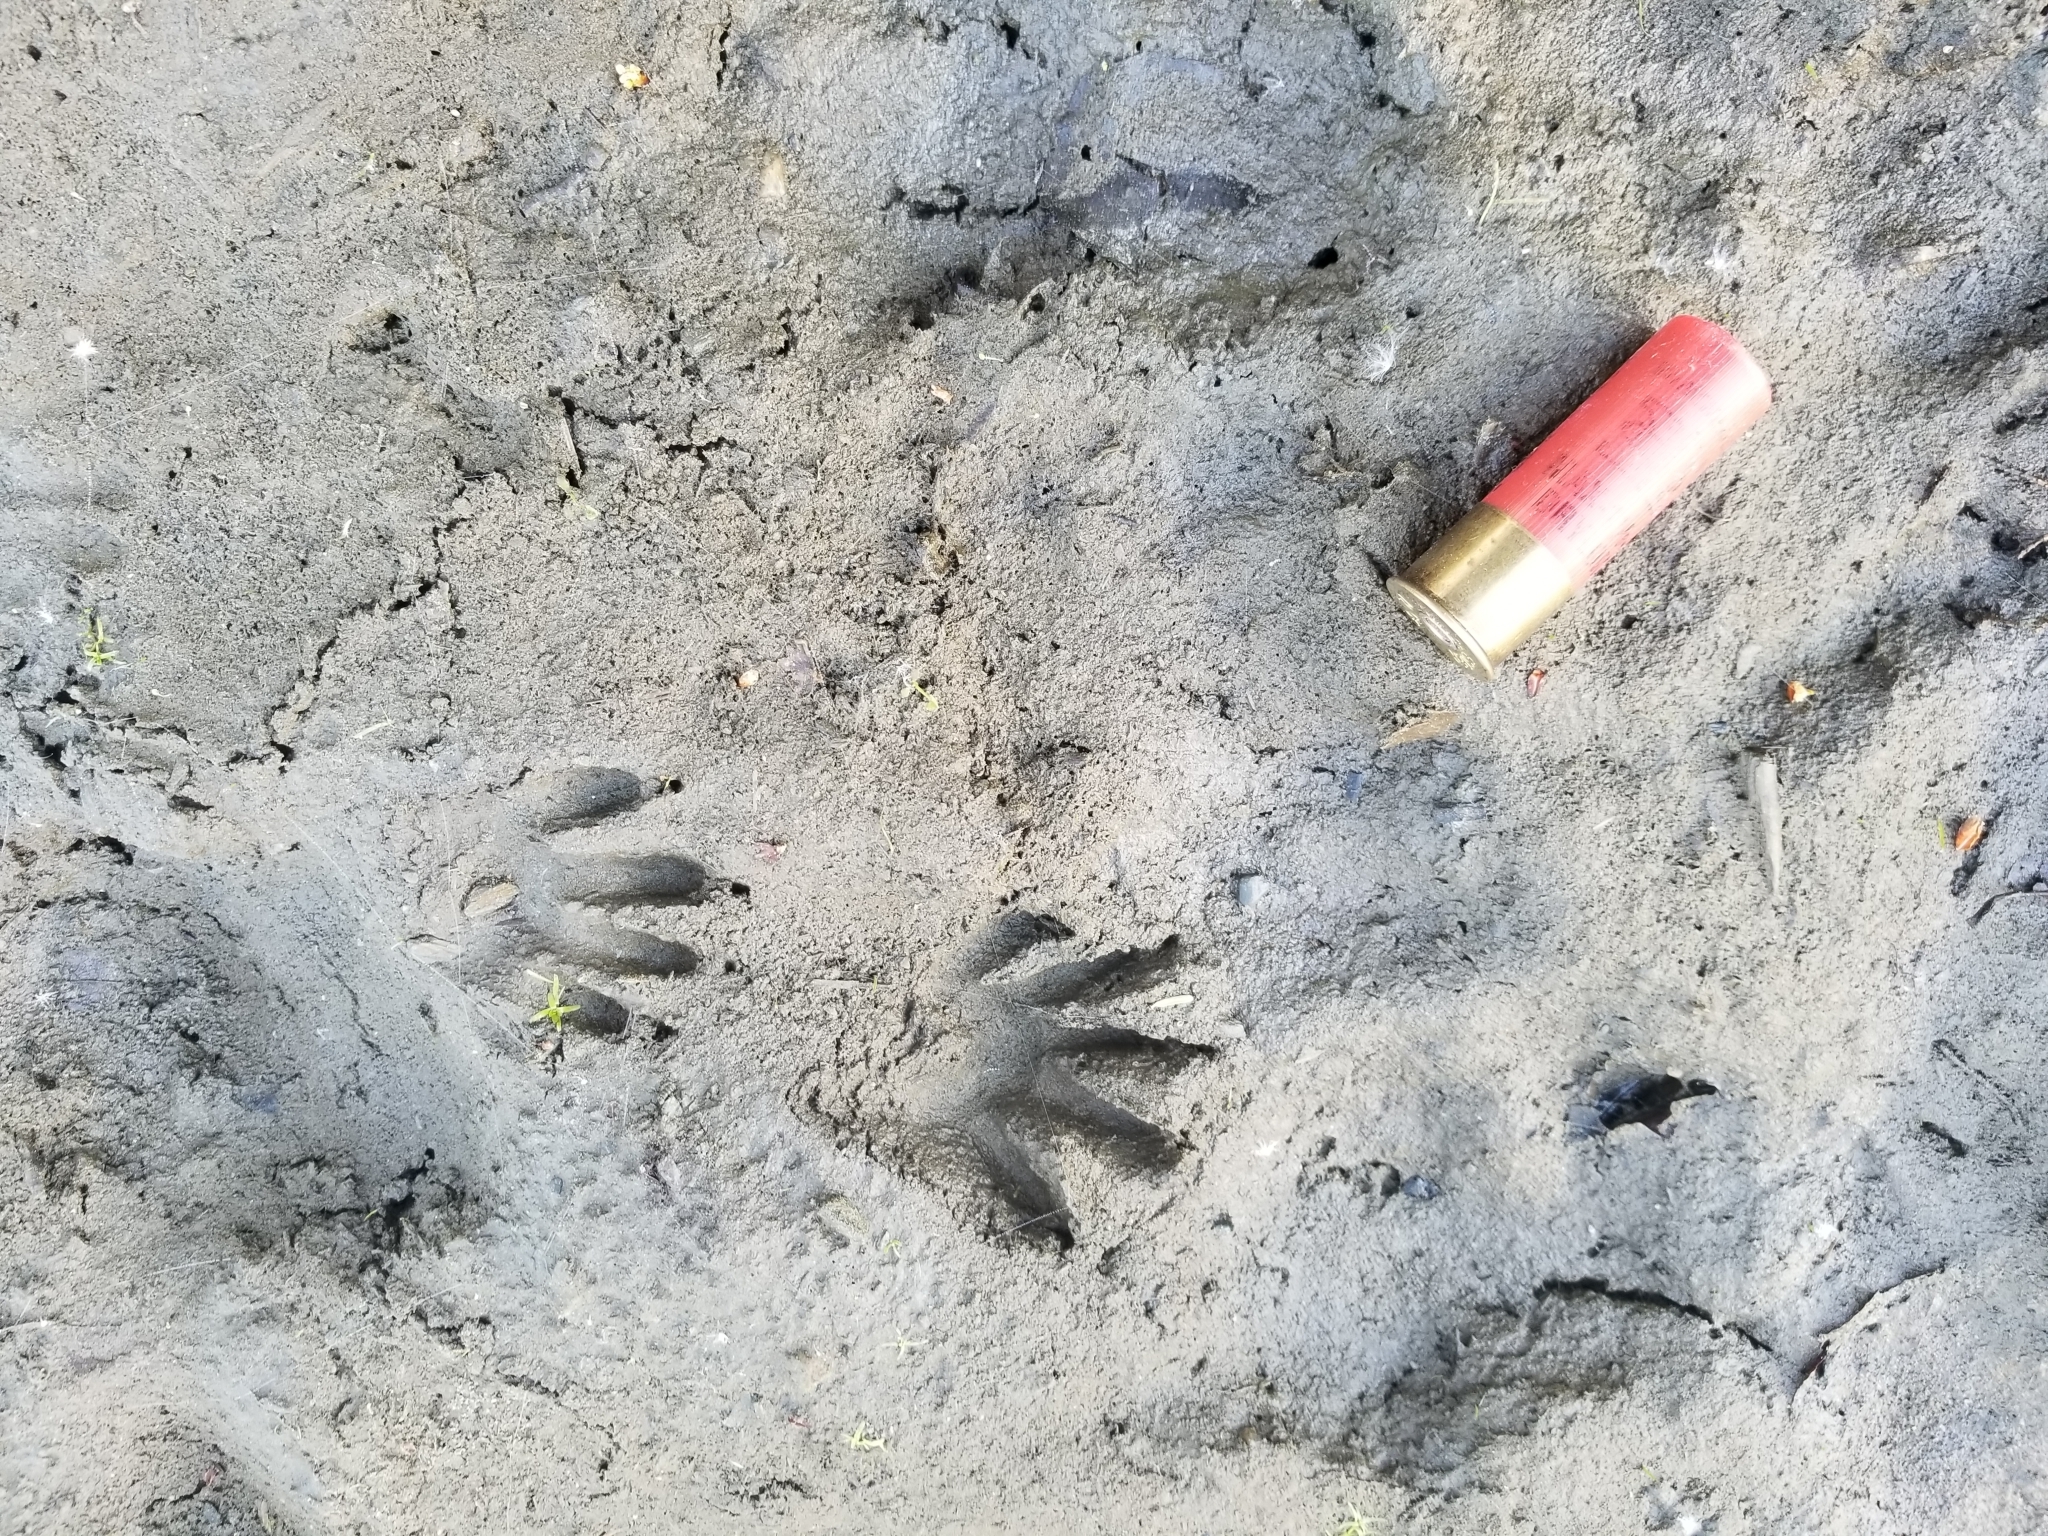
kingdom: Animalia
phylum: Chordata
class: Mammalia
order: Carnivora
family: Procyonidae
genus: Procyon
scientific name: Procyon lotor
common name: Raccoon
